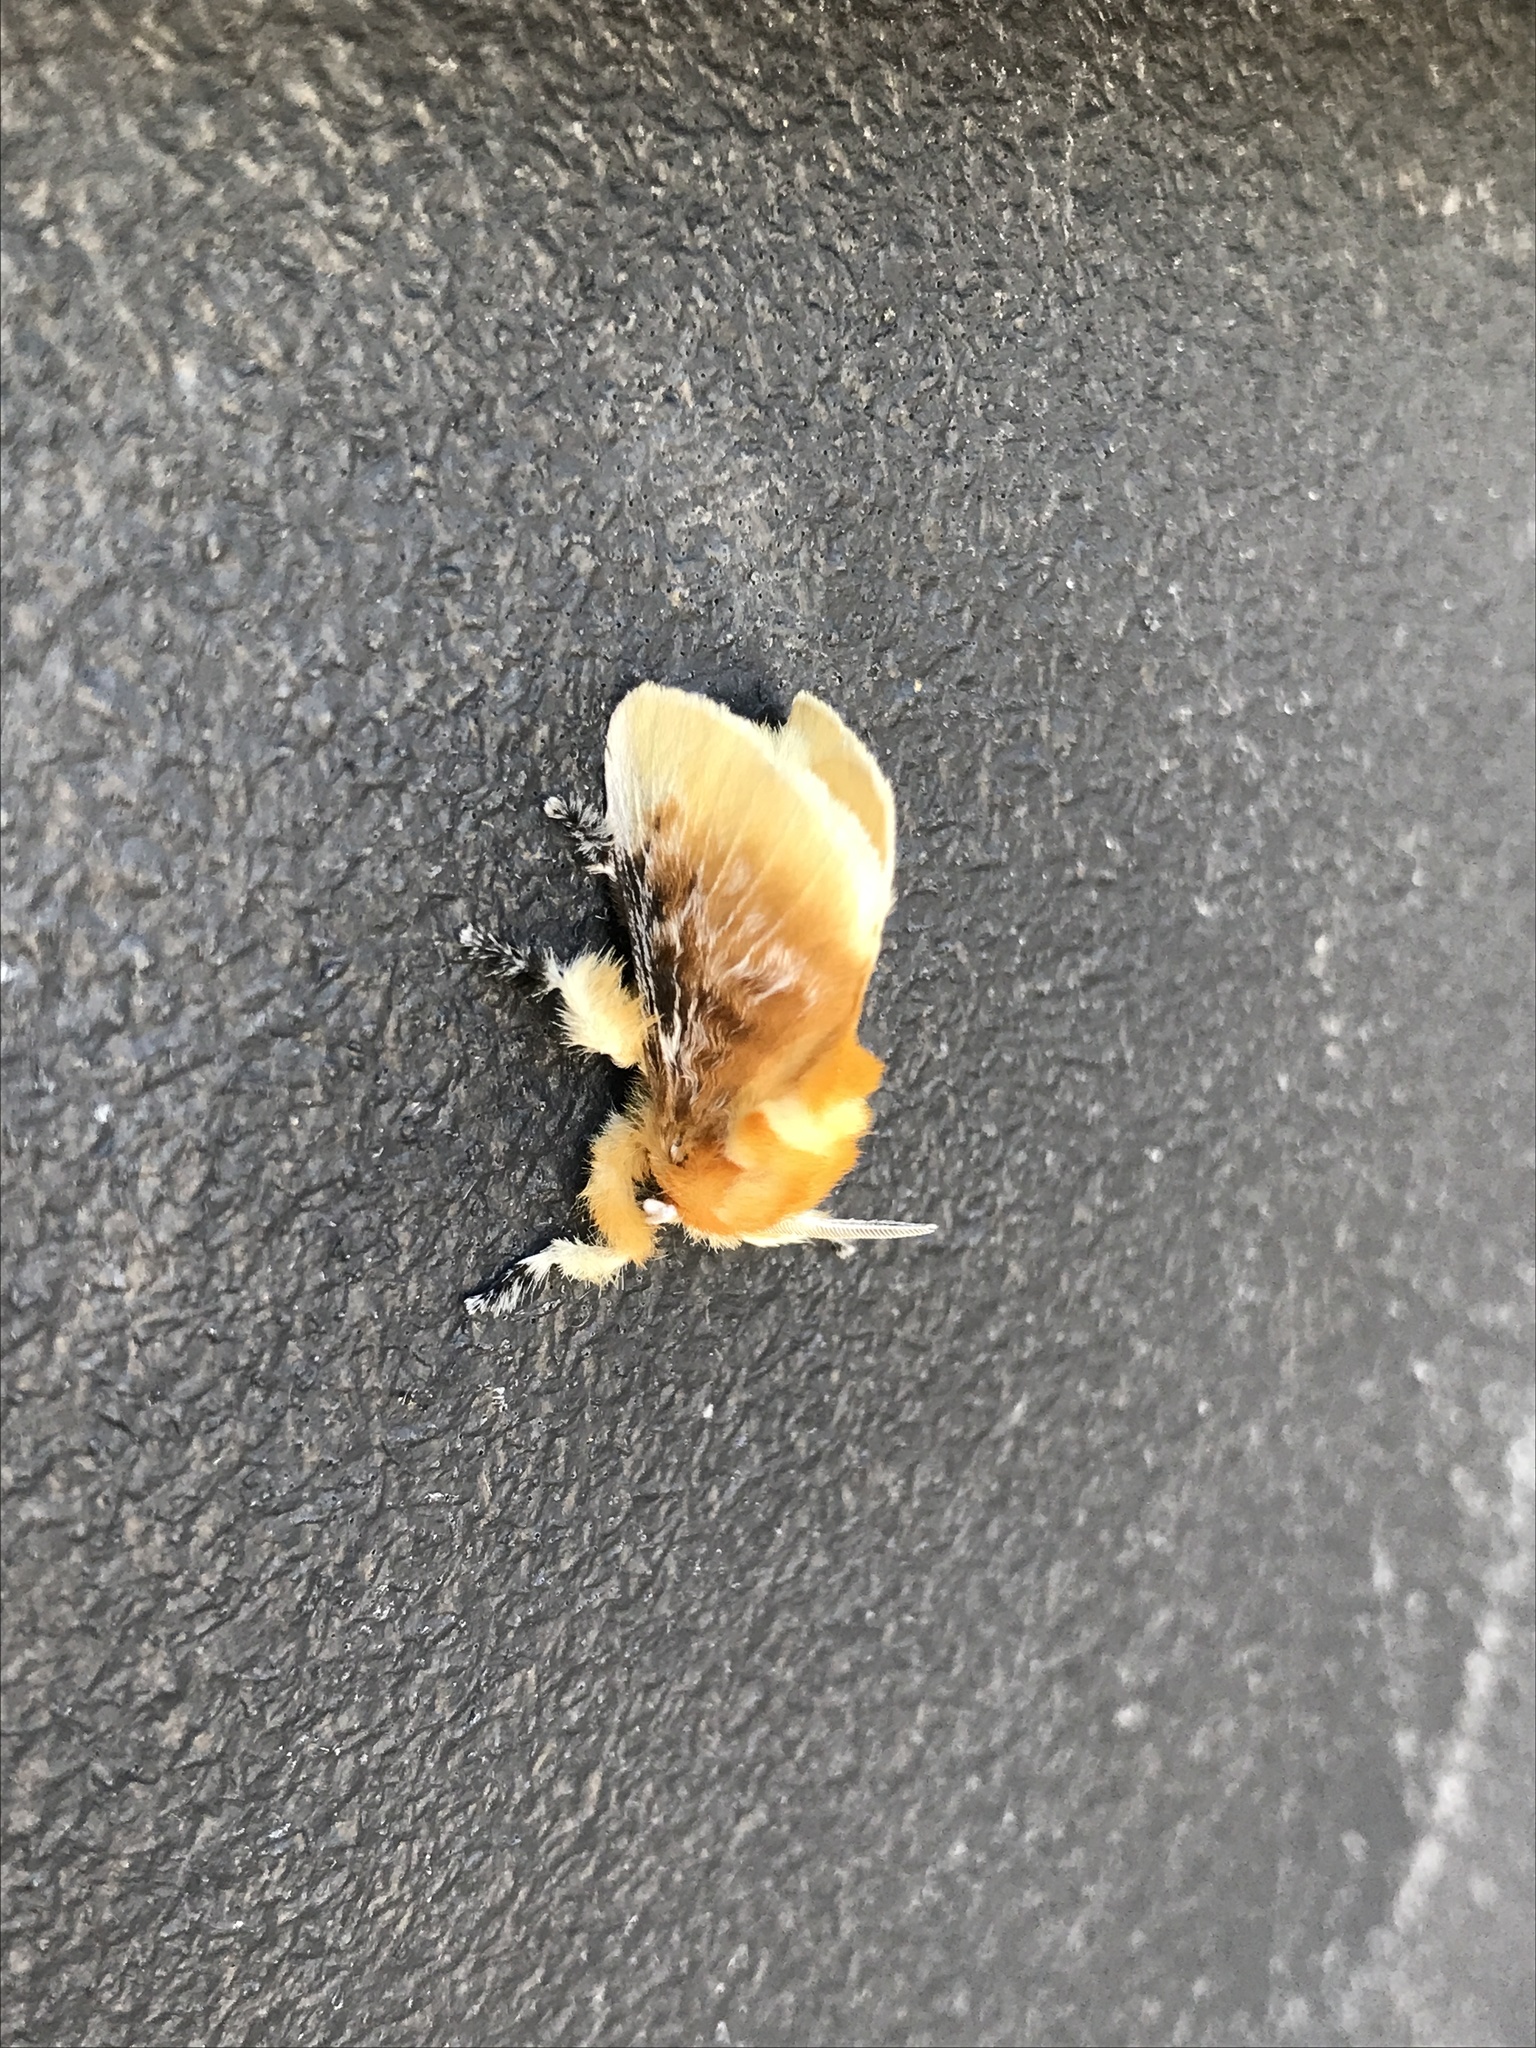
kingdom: Animalia
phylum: Arthropoda
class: Insecta
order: Lepidoptera
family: Megalopygidae
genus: Megalopyge
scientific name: Megalopyge opercularis
